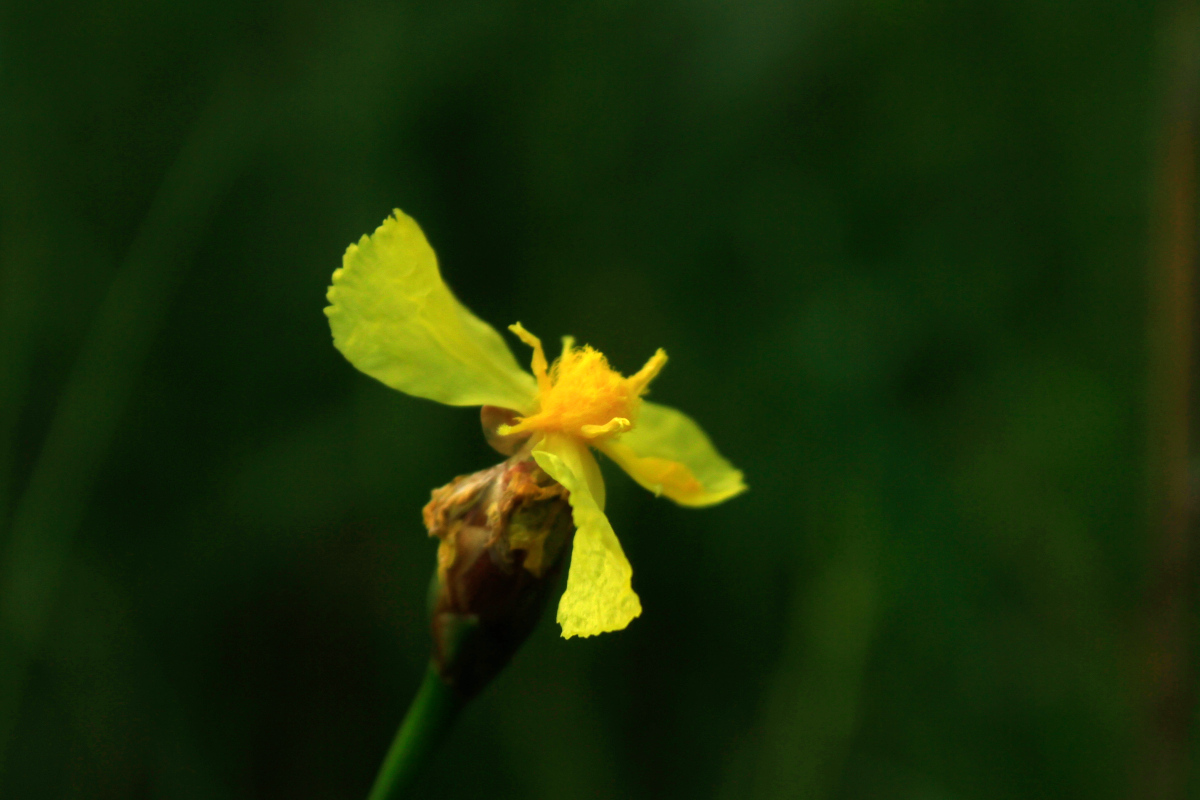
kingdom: Plantae
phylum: Tracheophyta
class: Liliopsida
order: Poales
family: Xyridaceae
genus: Xyris
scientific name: Xyris caroliniana
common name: Carolina yellow-eyed-grass
